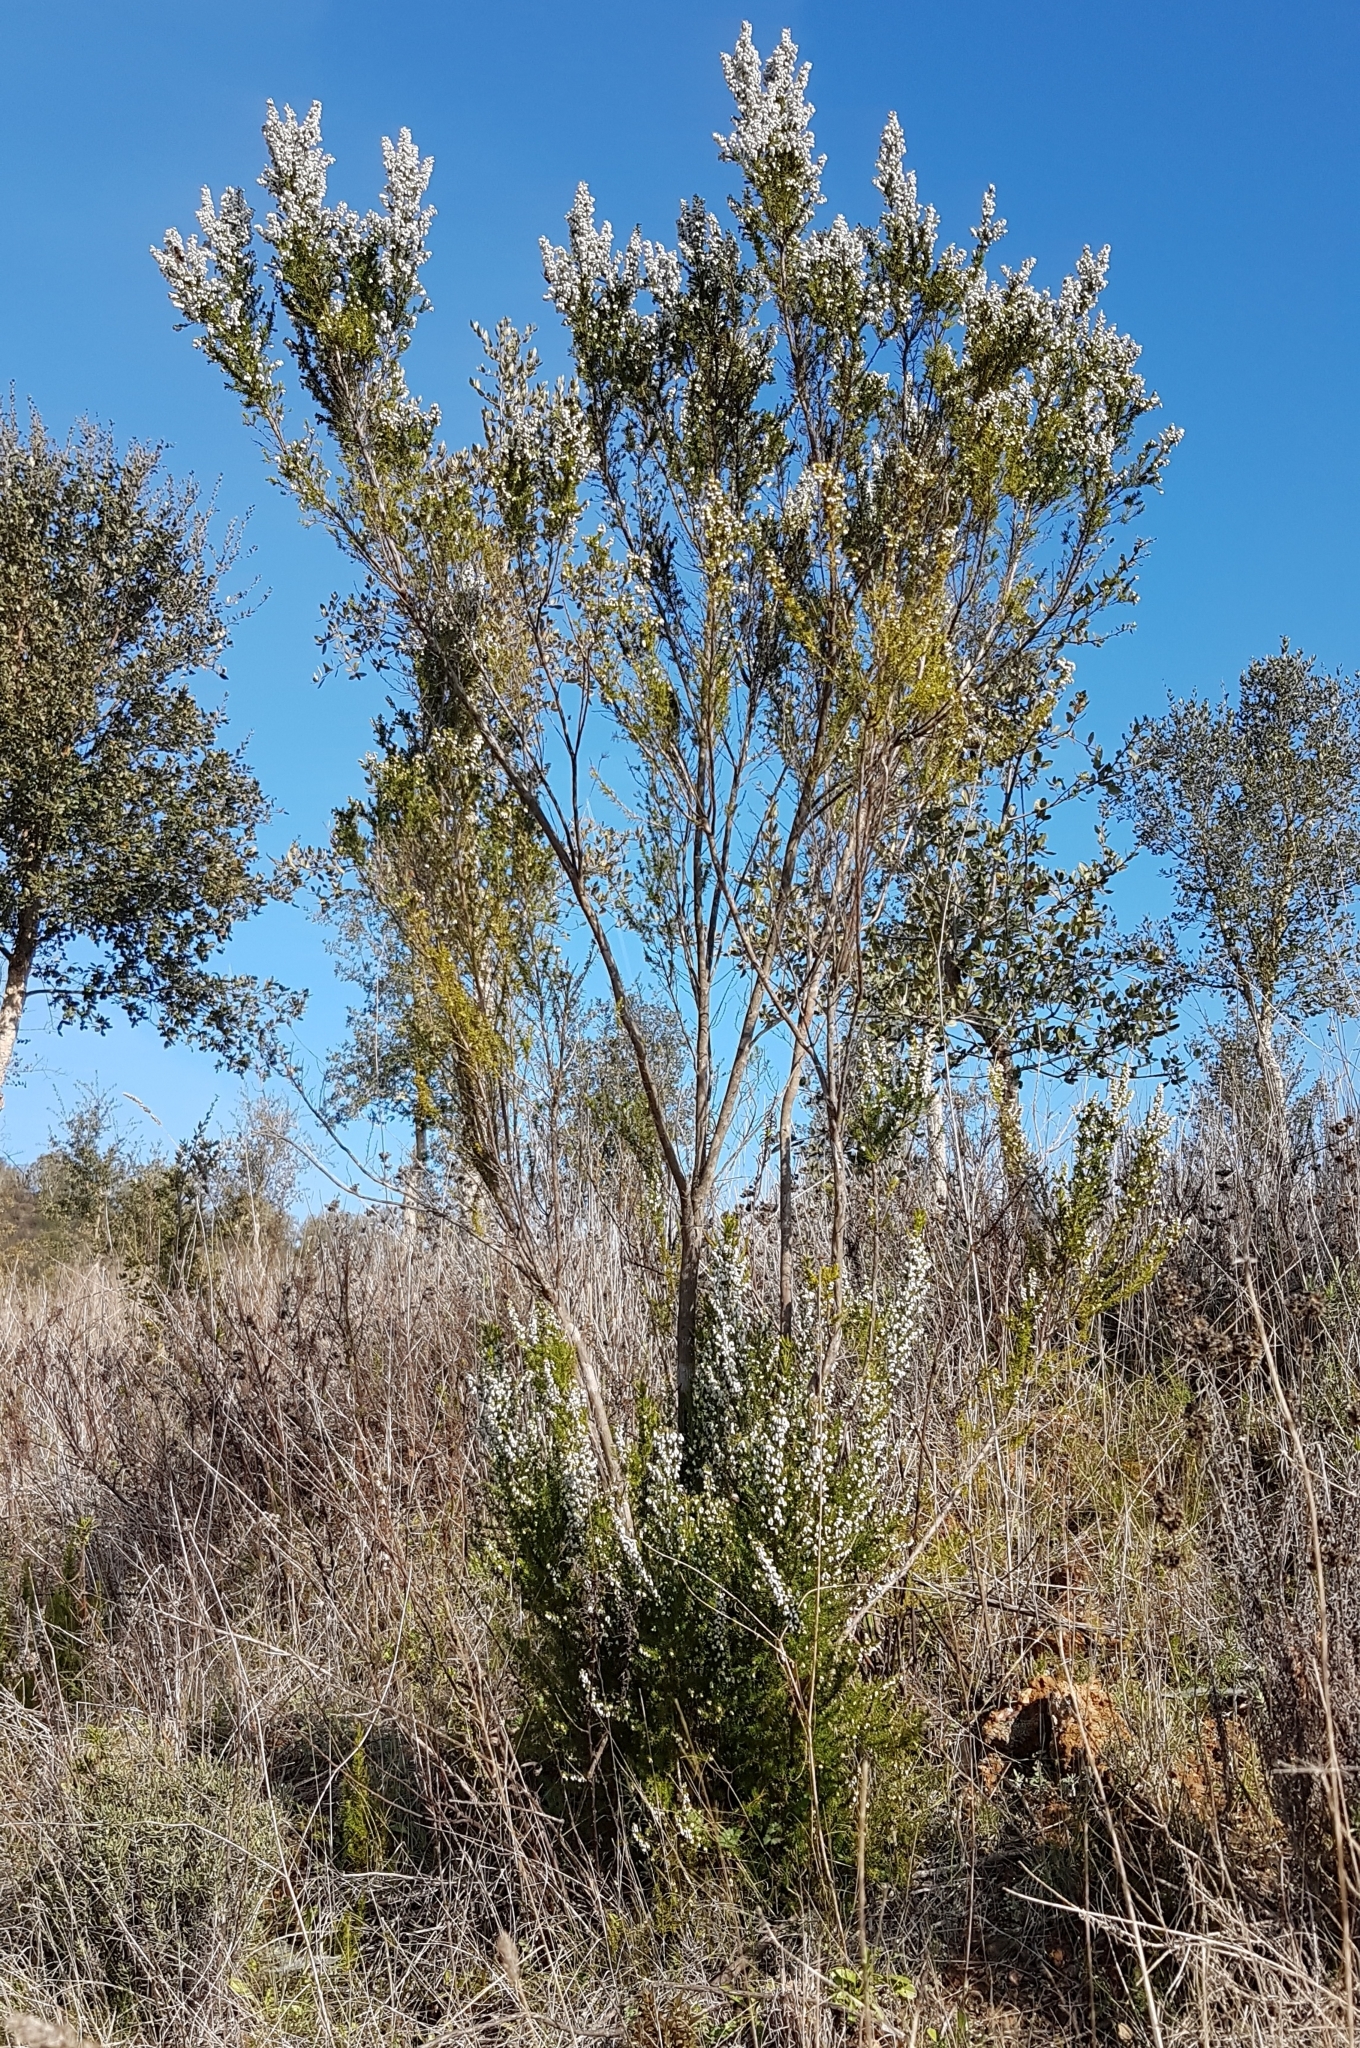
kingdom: Plantae
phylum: Tracheophyta
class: Magnoliopsida
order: Ericales
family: Ericaceae
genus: Erica
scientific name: Erica lusitanica
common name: Spanish heath
